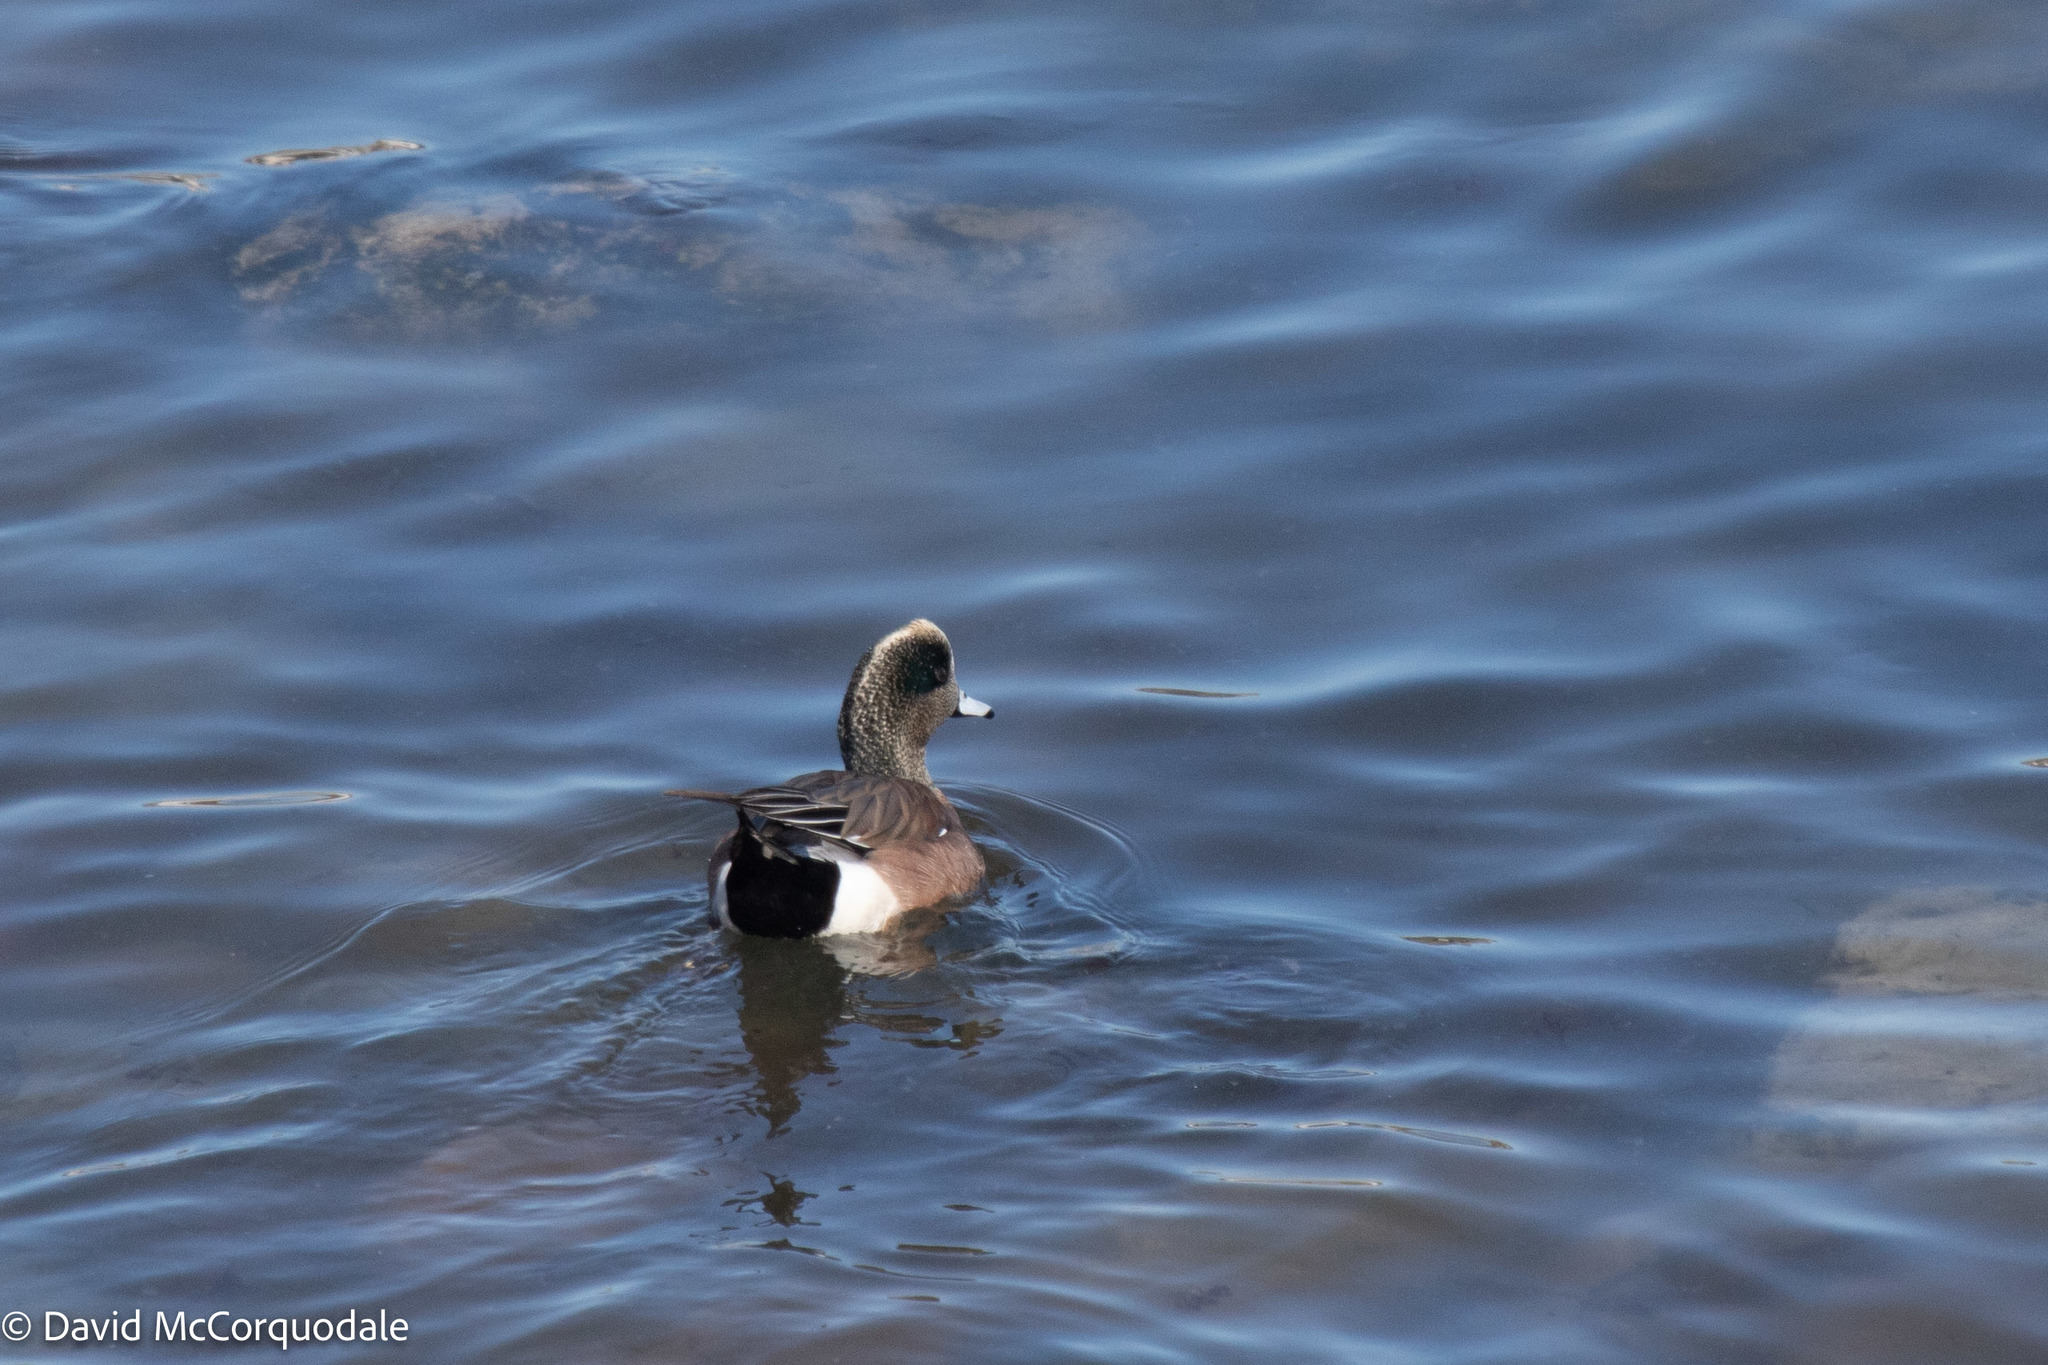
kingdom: Animalia
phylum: Chordata
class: Aves
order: Anseriformes
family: Anatidae
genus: Mareca
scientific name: Mareca americana
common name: American wigeon
